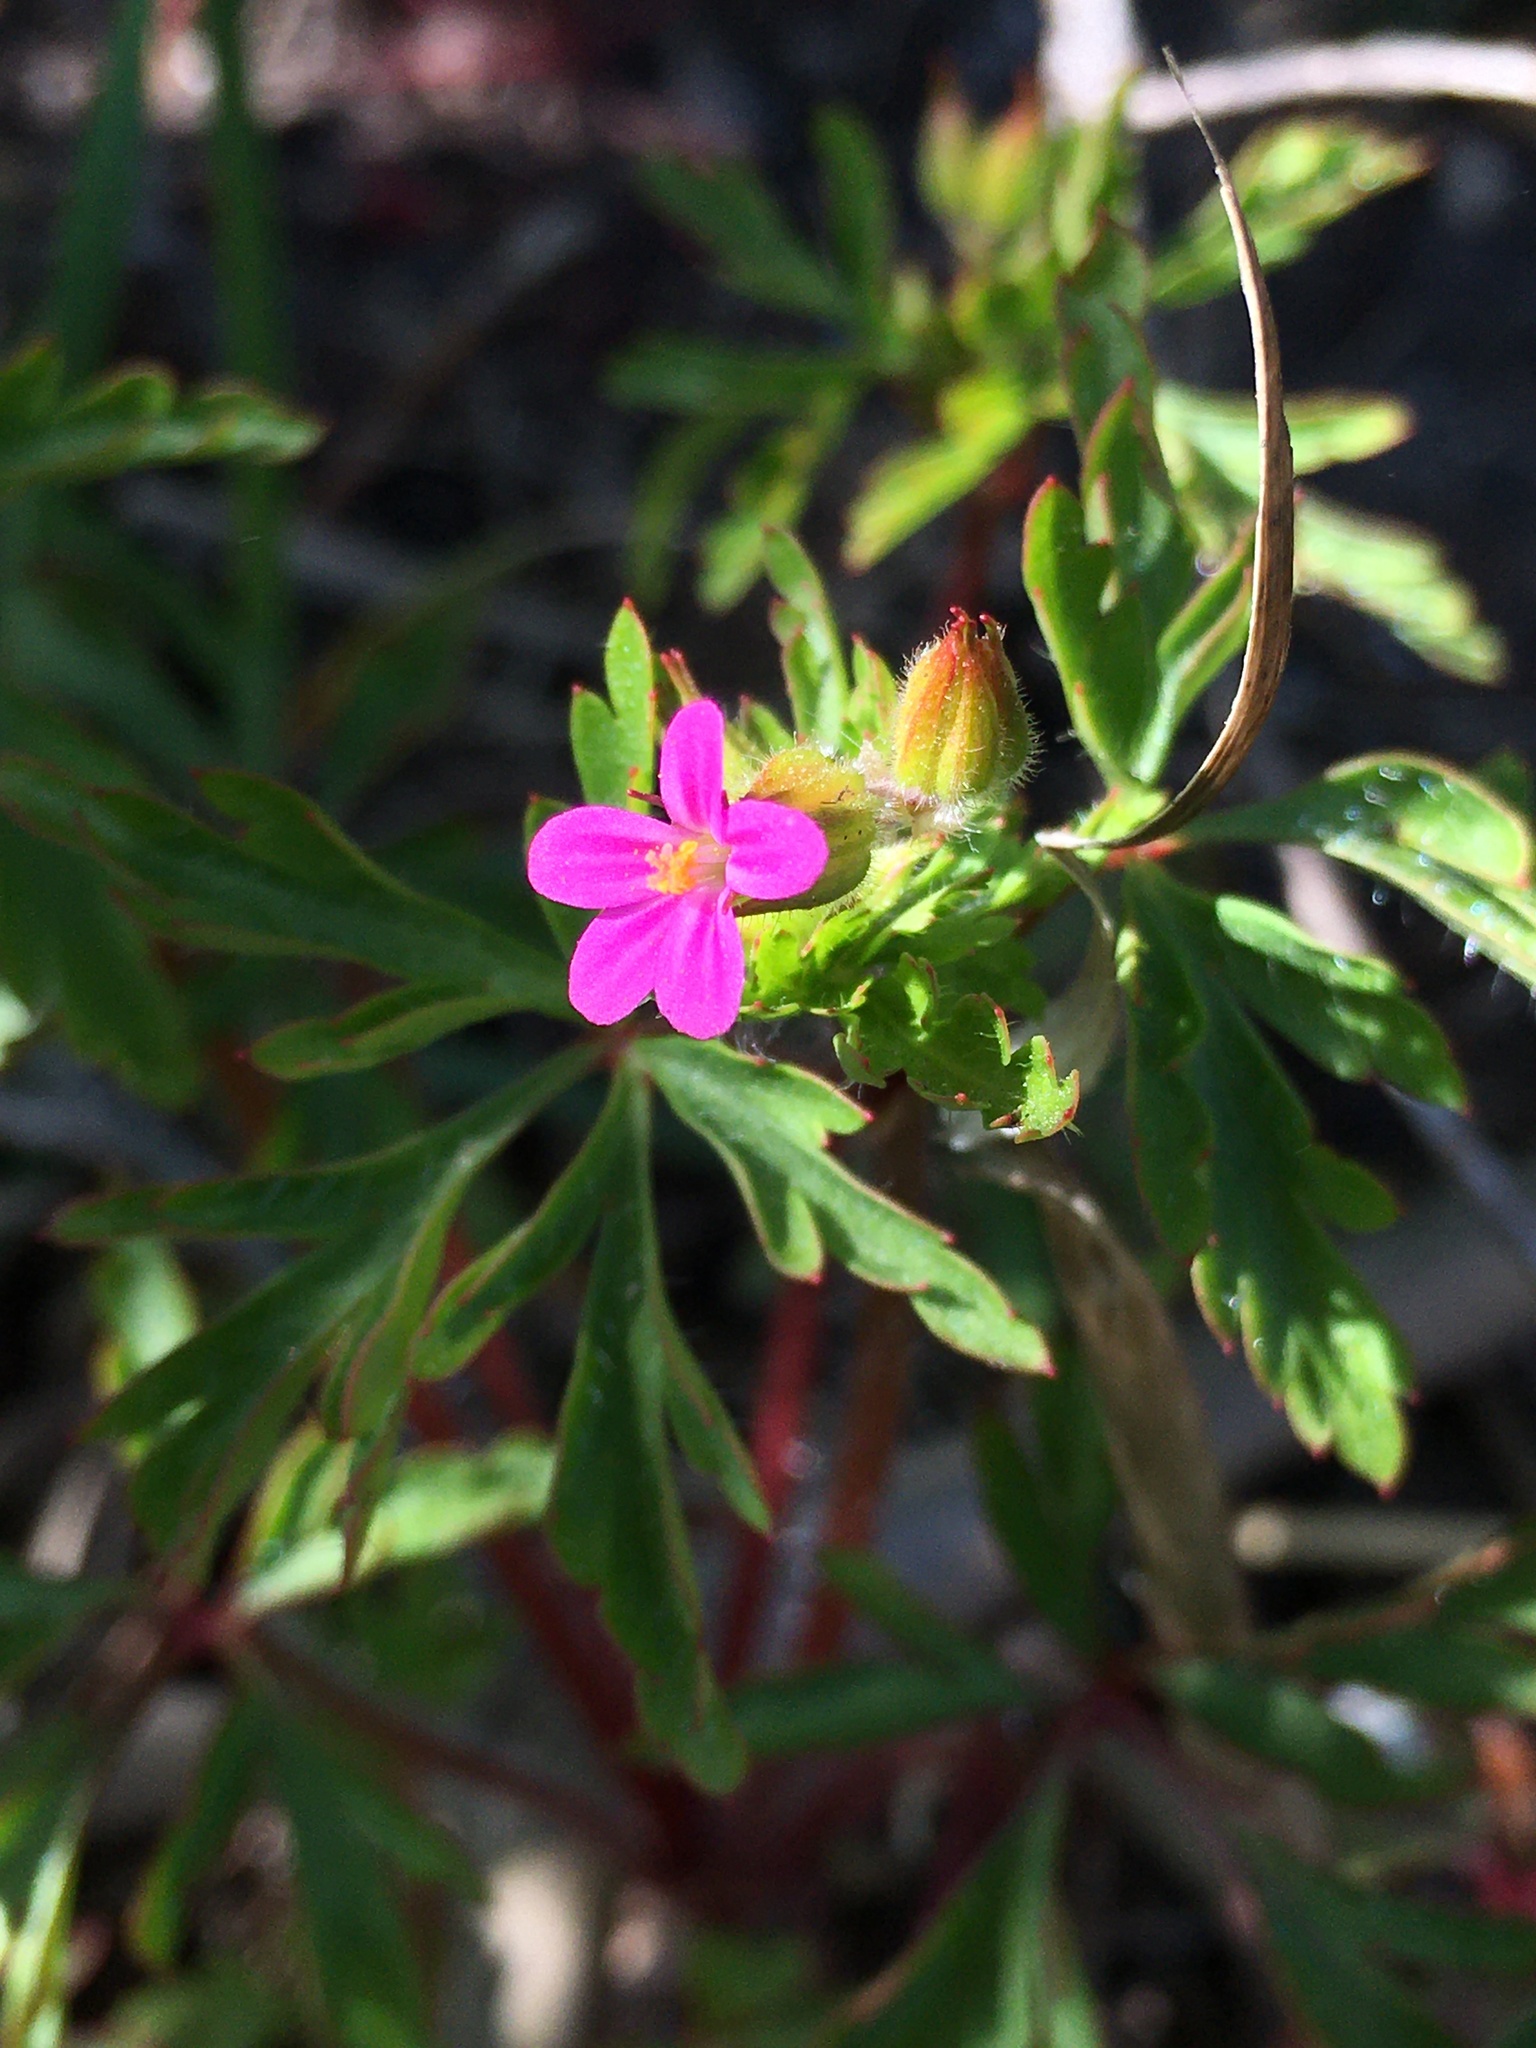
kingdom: Plantae
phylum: Tracheophyta
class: Magnoliopsida
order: Geraniales
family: Geraniaceae
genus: Geranium
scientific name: Geranium purpureum
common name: Little-robin
